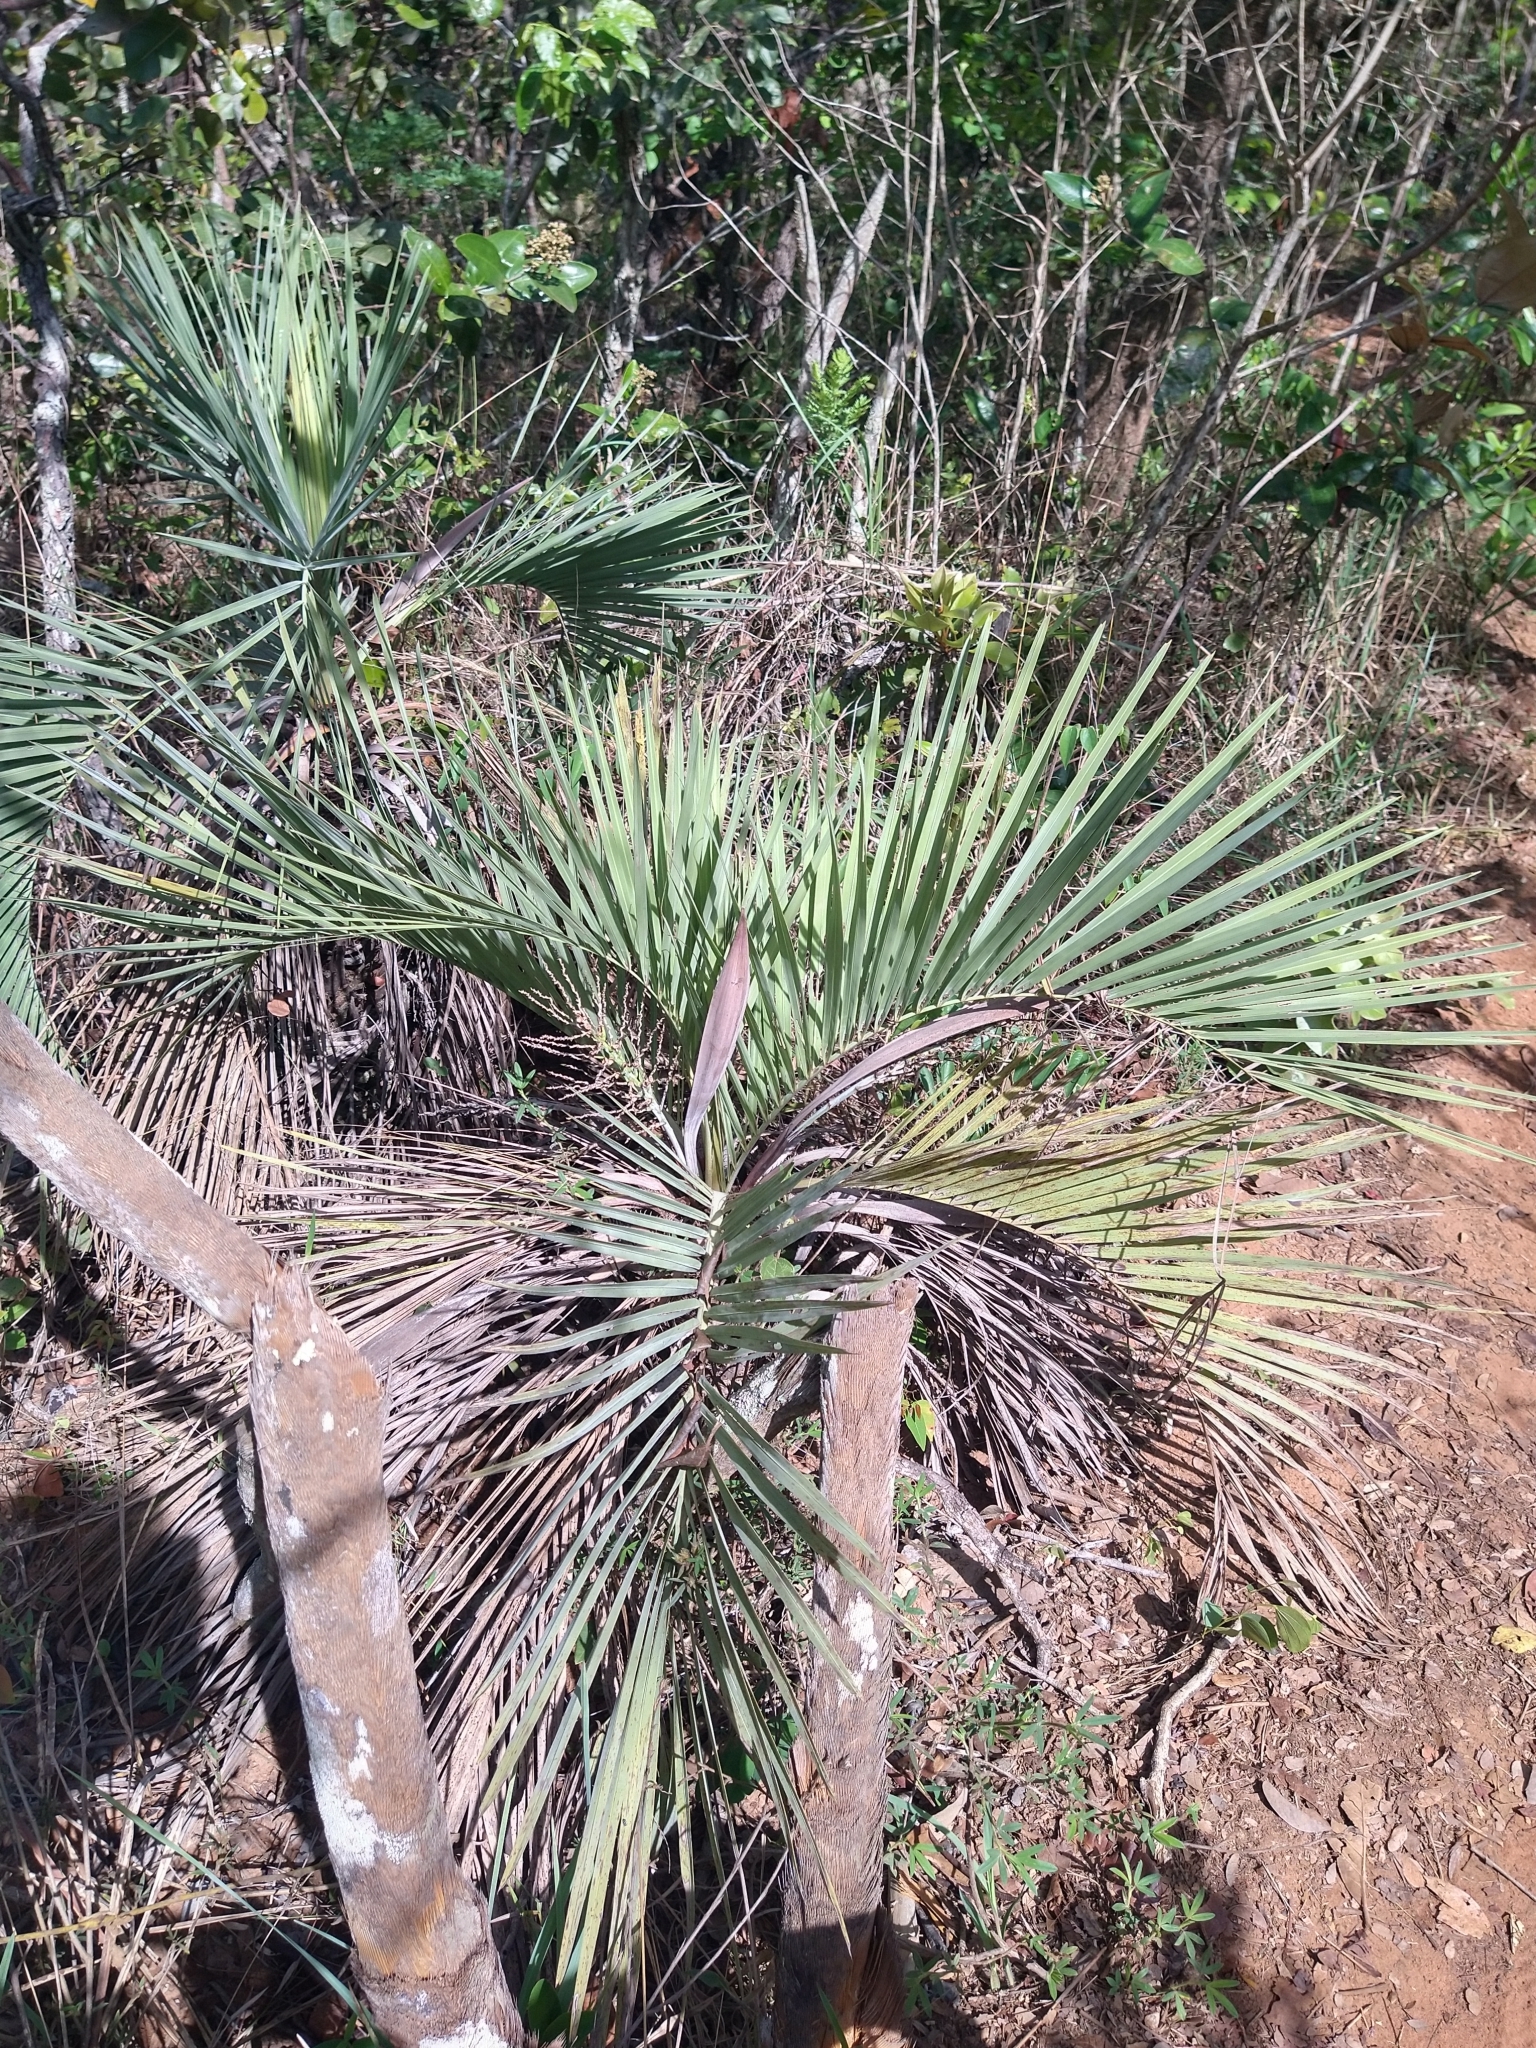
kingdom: Plantae
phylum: Tracheophyta
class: Liliopsida
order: Arecales
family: Arecaceae
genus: Butia
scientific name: Butia archeri
